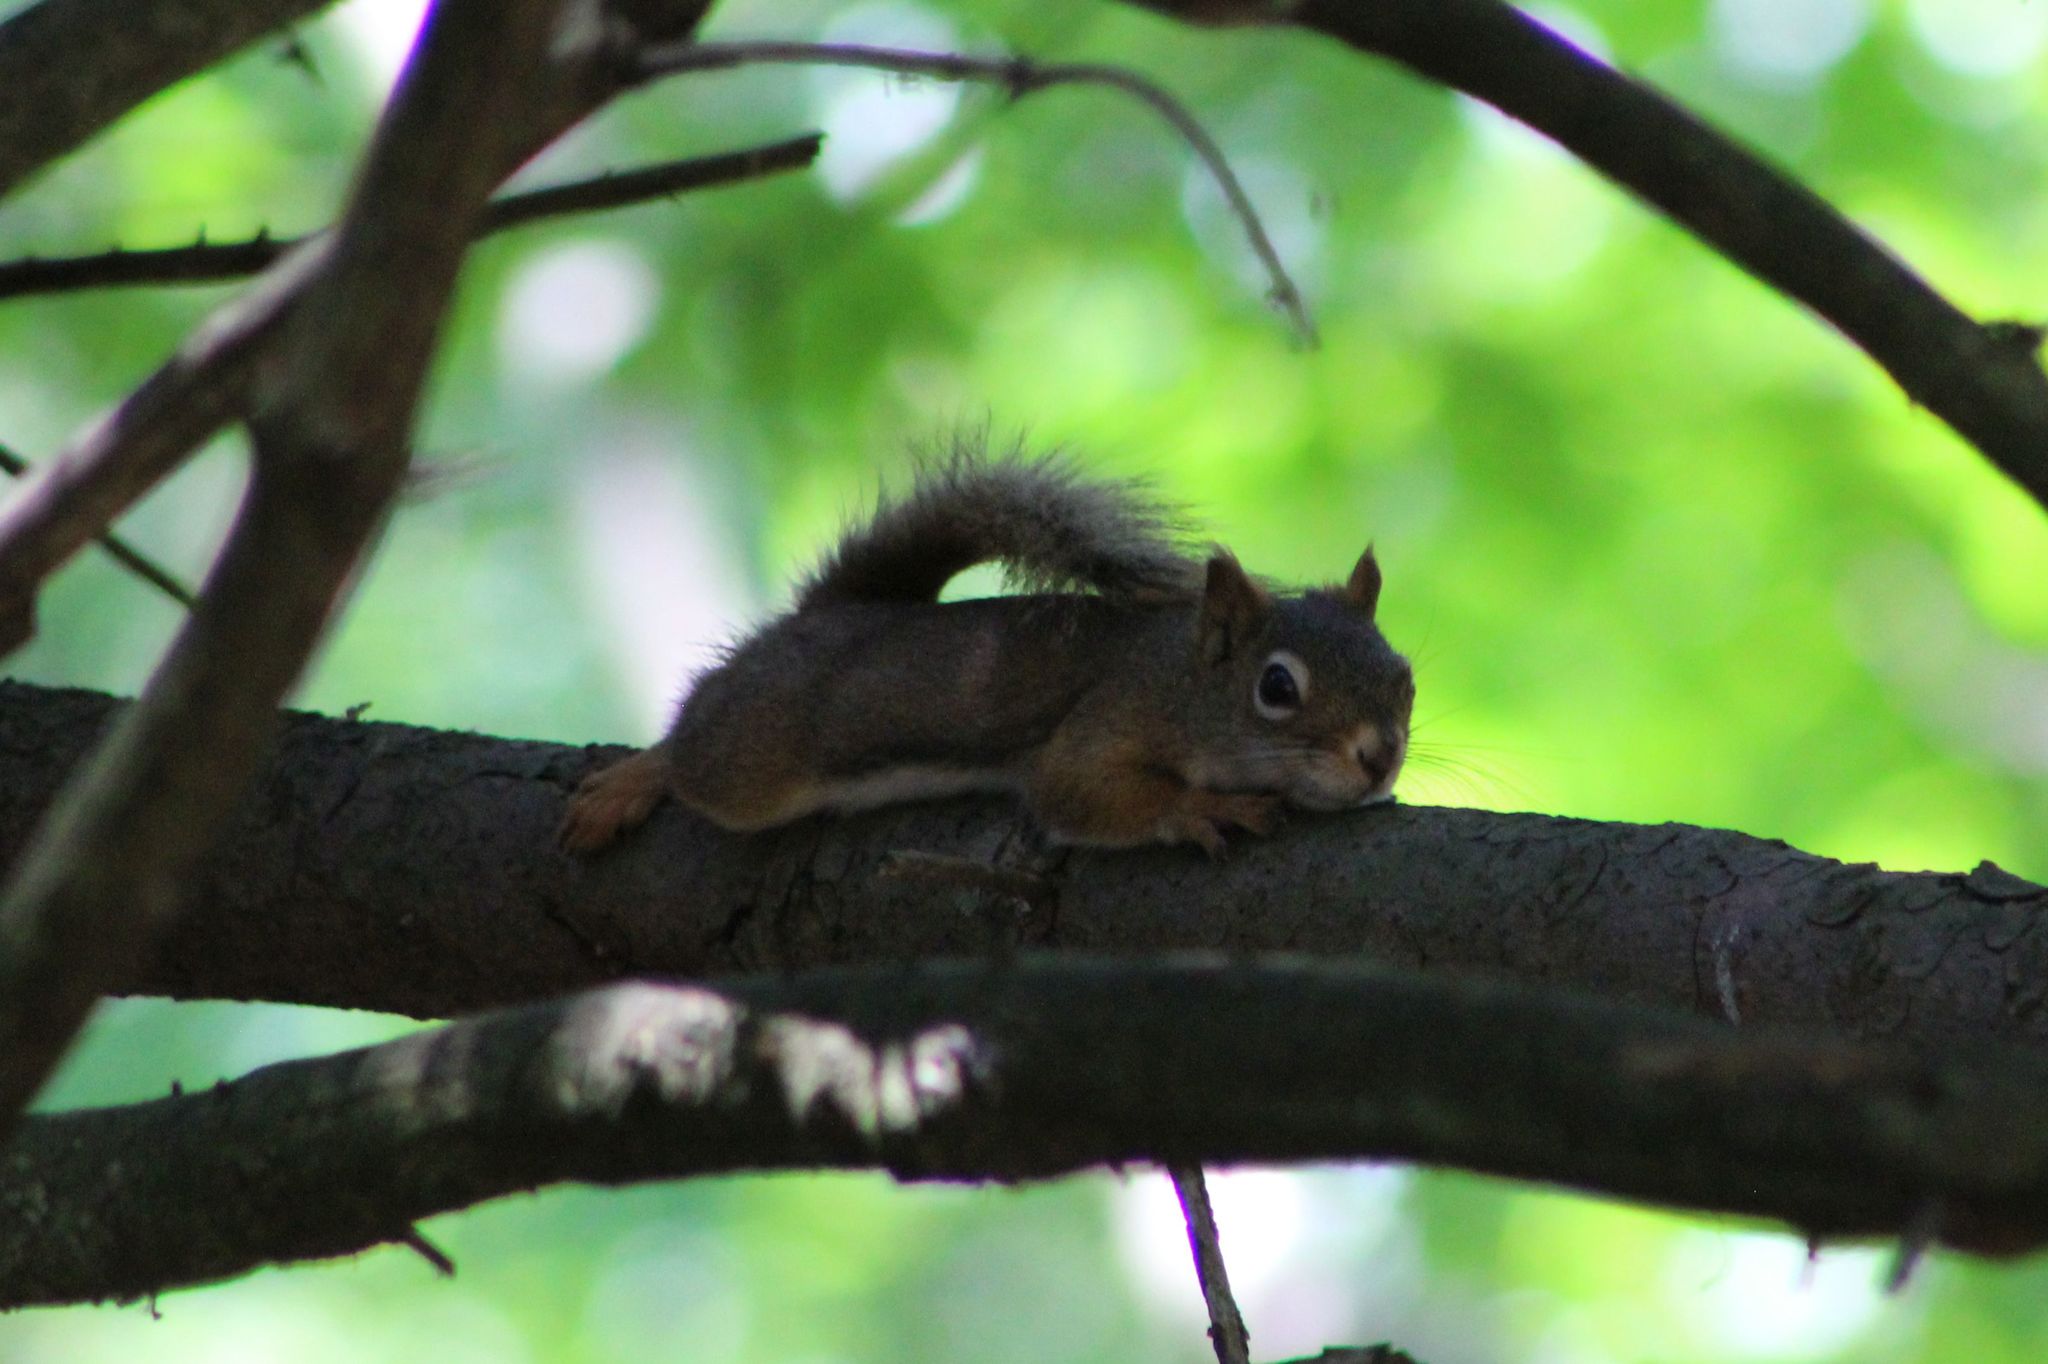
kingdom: Animalia
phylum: Chordata
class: Mammalia
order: Rodentia
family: Sciuridae
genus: Tamiasciurus
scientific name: Tamiasciurus hudsonicus
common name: Red squirrel
